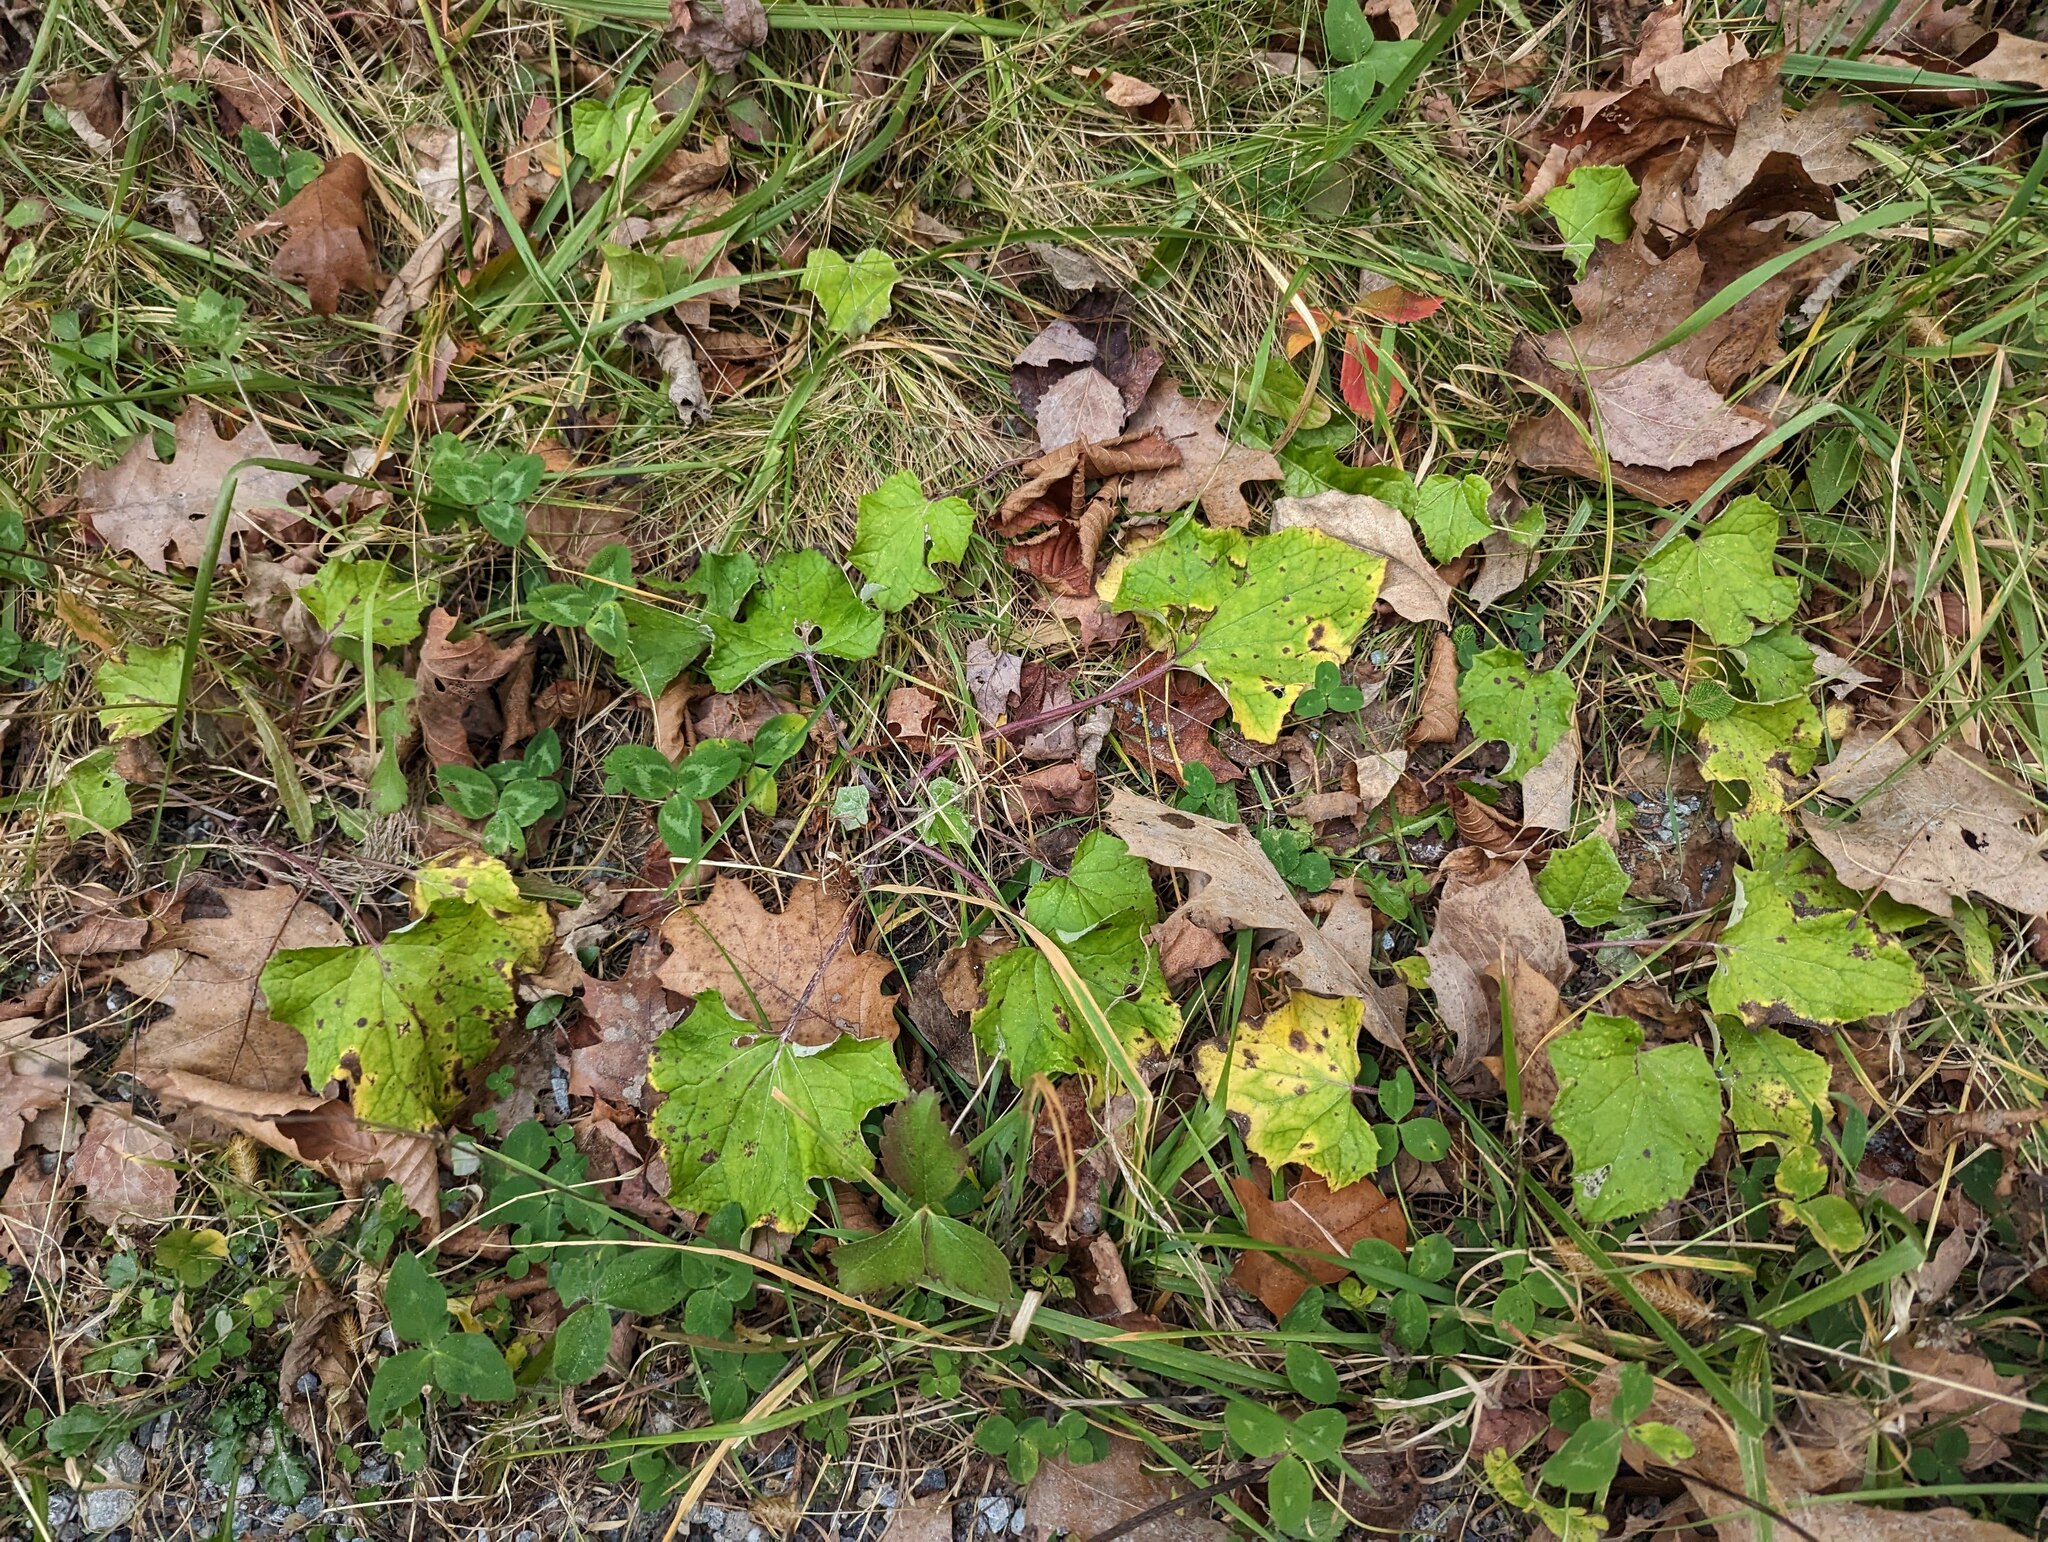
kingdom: Plantae
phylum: Tracheophyta
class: Magnoliopsida
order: Asterales
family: Asteraceae
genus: Tussilago
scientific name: Tussilago farfara
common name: Coltsfoot
